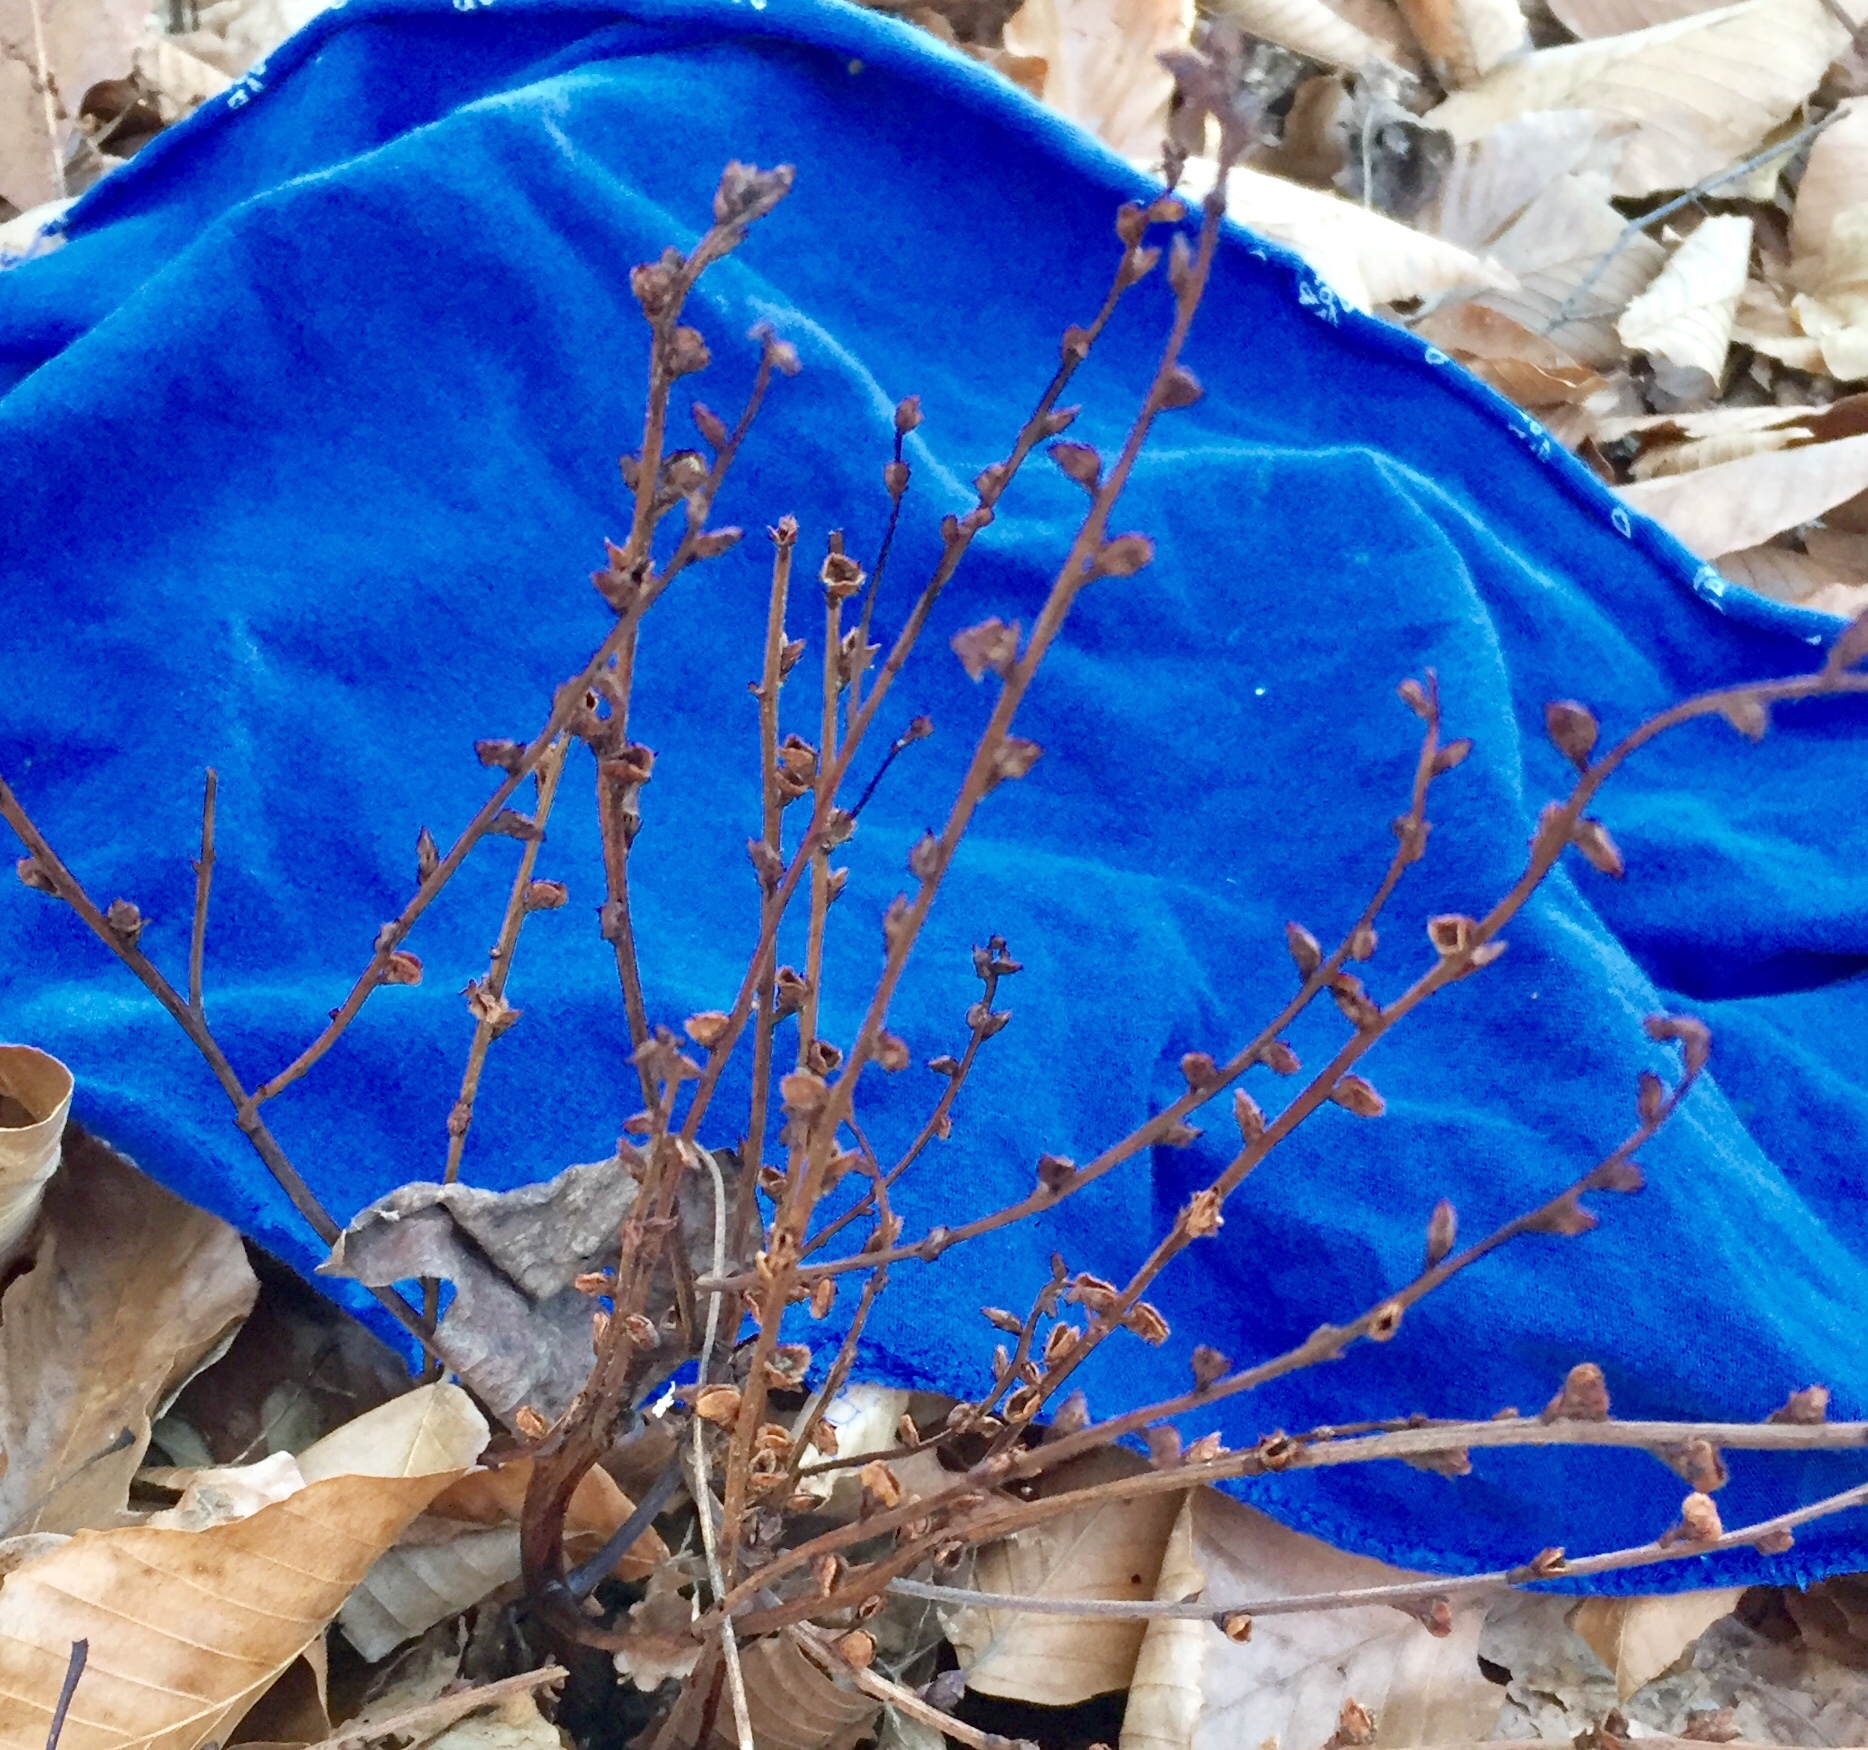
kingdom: Plantae
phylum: Tracheophyta
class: Magnoliopsida
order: Lamiales
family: Orobanchaceae
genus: Epifagus
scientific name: Epifagus virginiana
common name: Beechdrops
